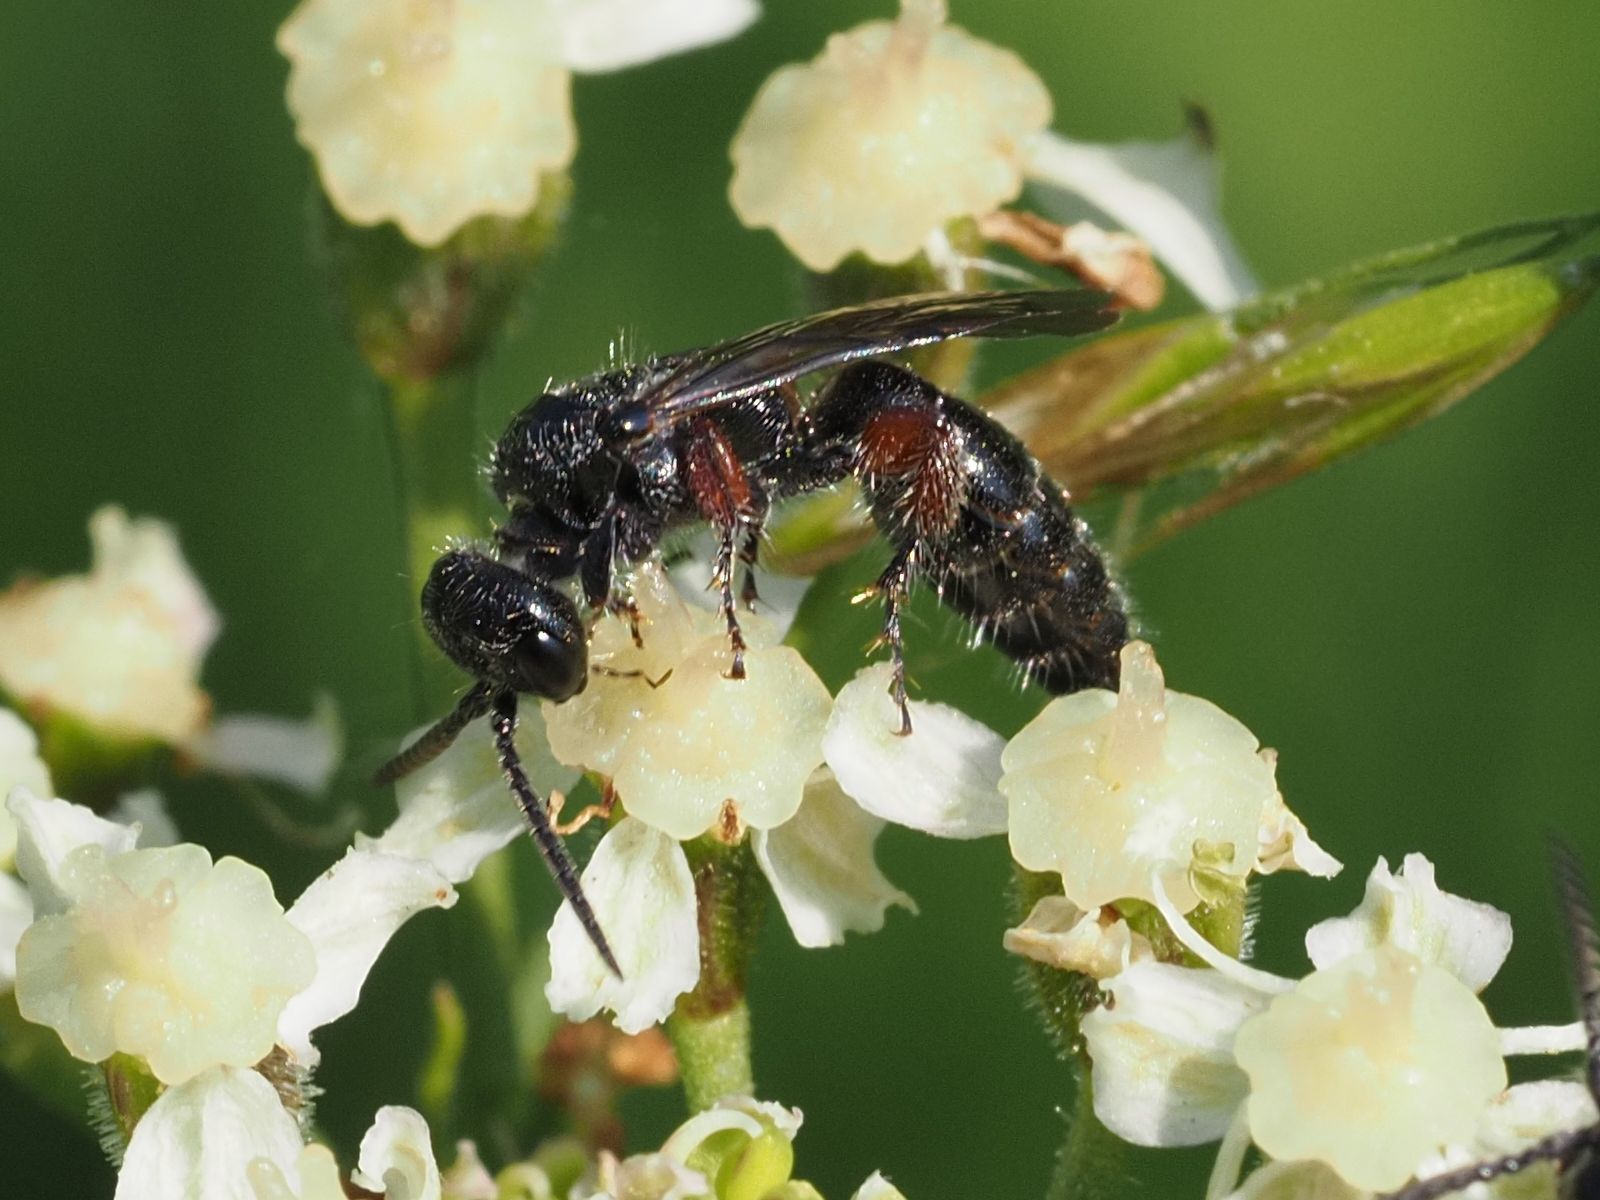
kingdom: Animalia
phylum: Arthropoda
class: Insecta
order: Hymenoptera
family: Tiphiidae
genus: Tiphia
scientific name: Tiphia femorata
